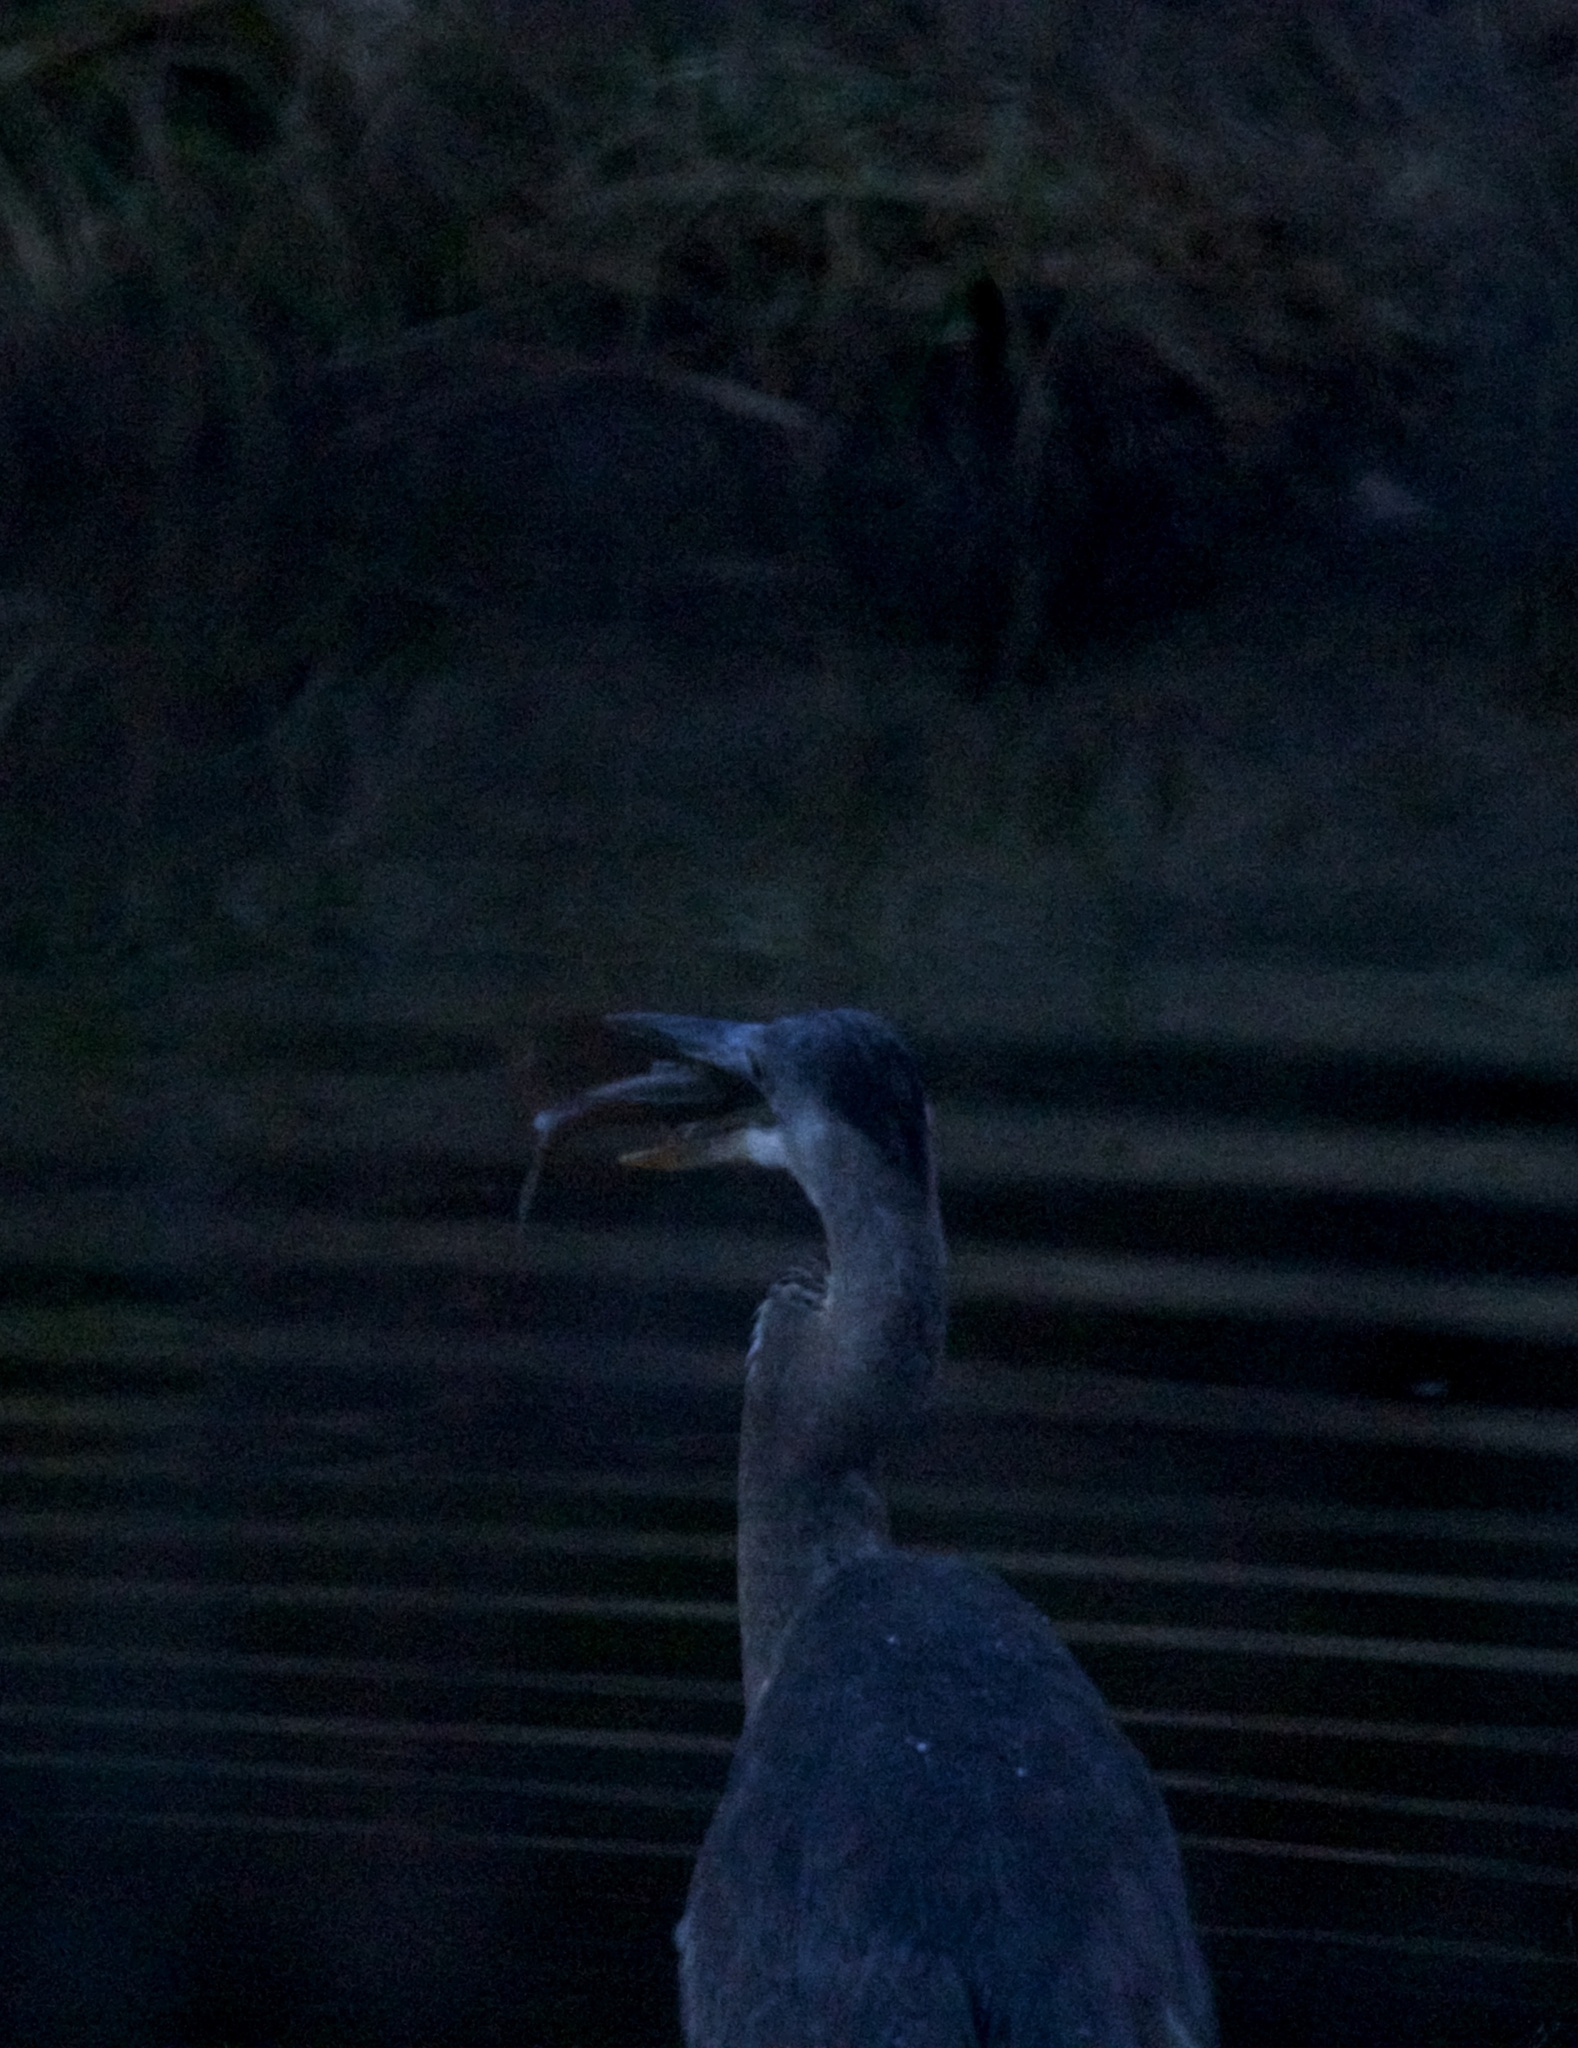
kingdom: Animalia
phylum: Chordata
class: Aves
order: Pelecaniformes
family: Ardeidae
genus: Ardea
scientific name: Ardea herodias
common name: Great blue heron
